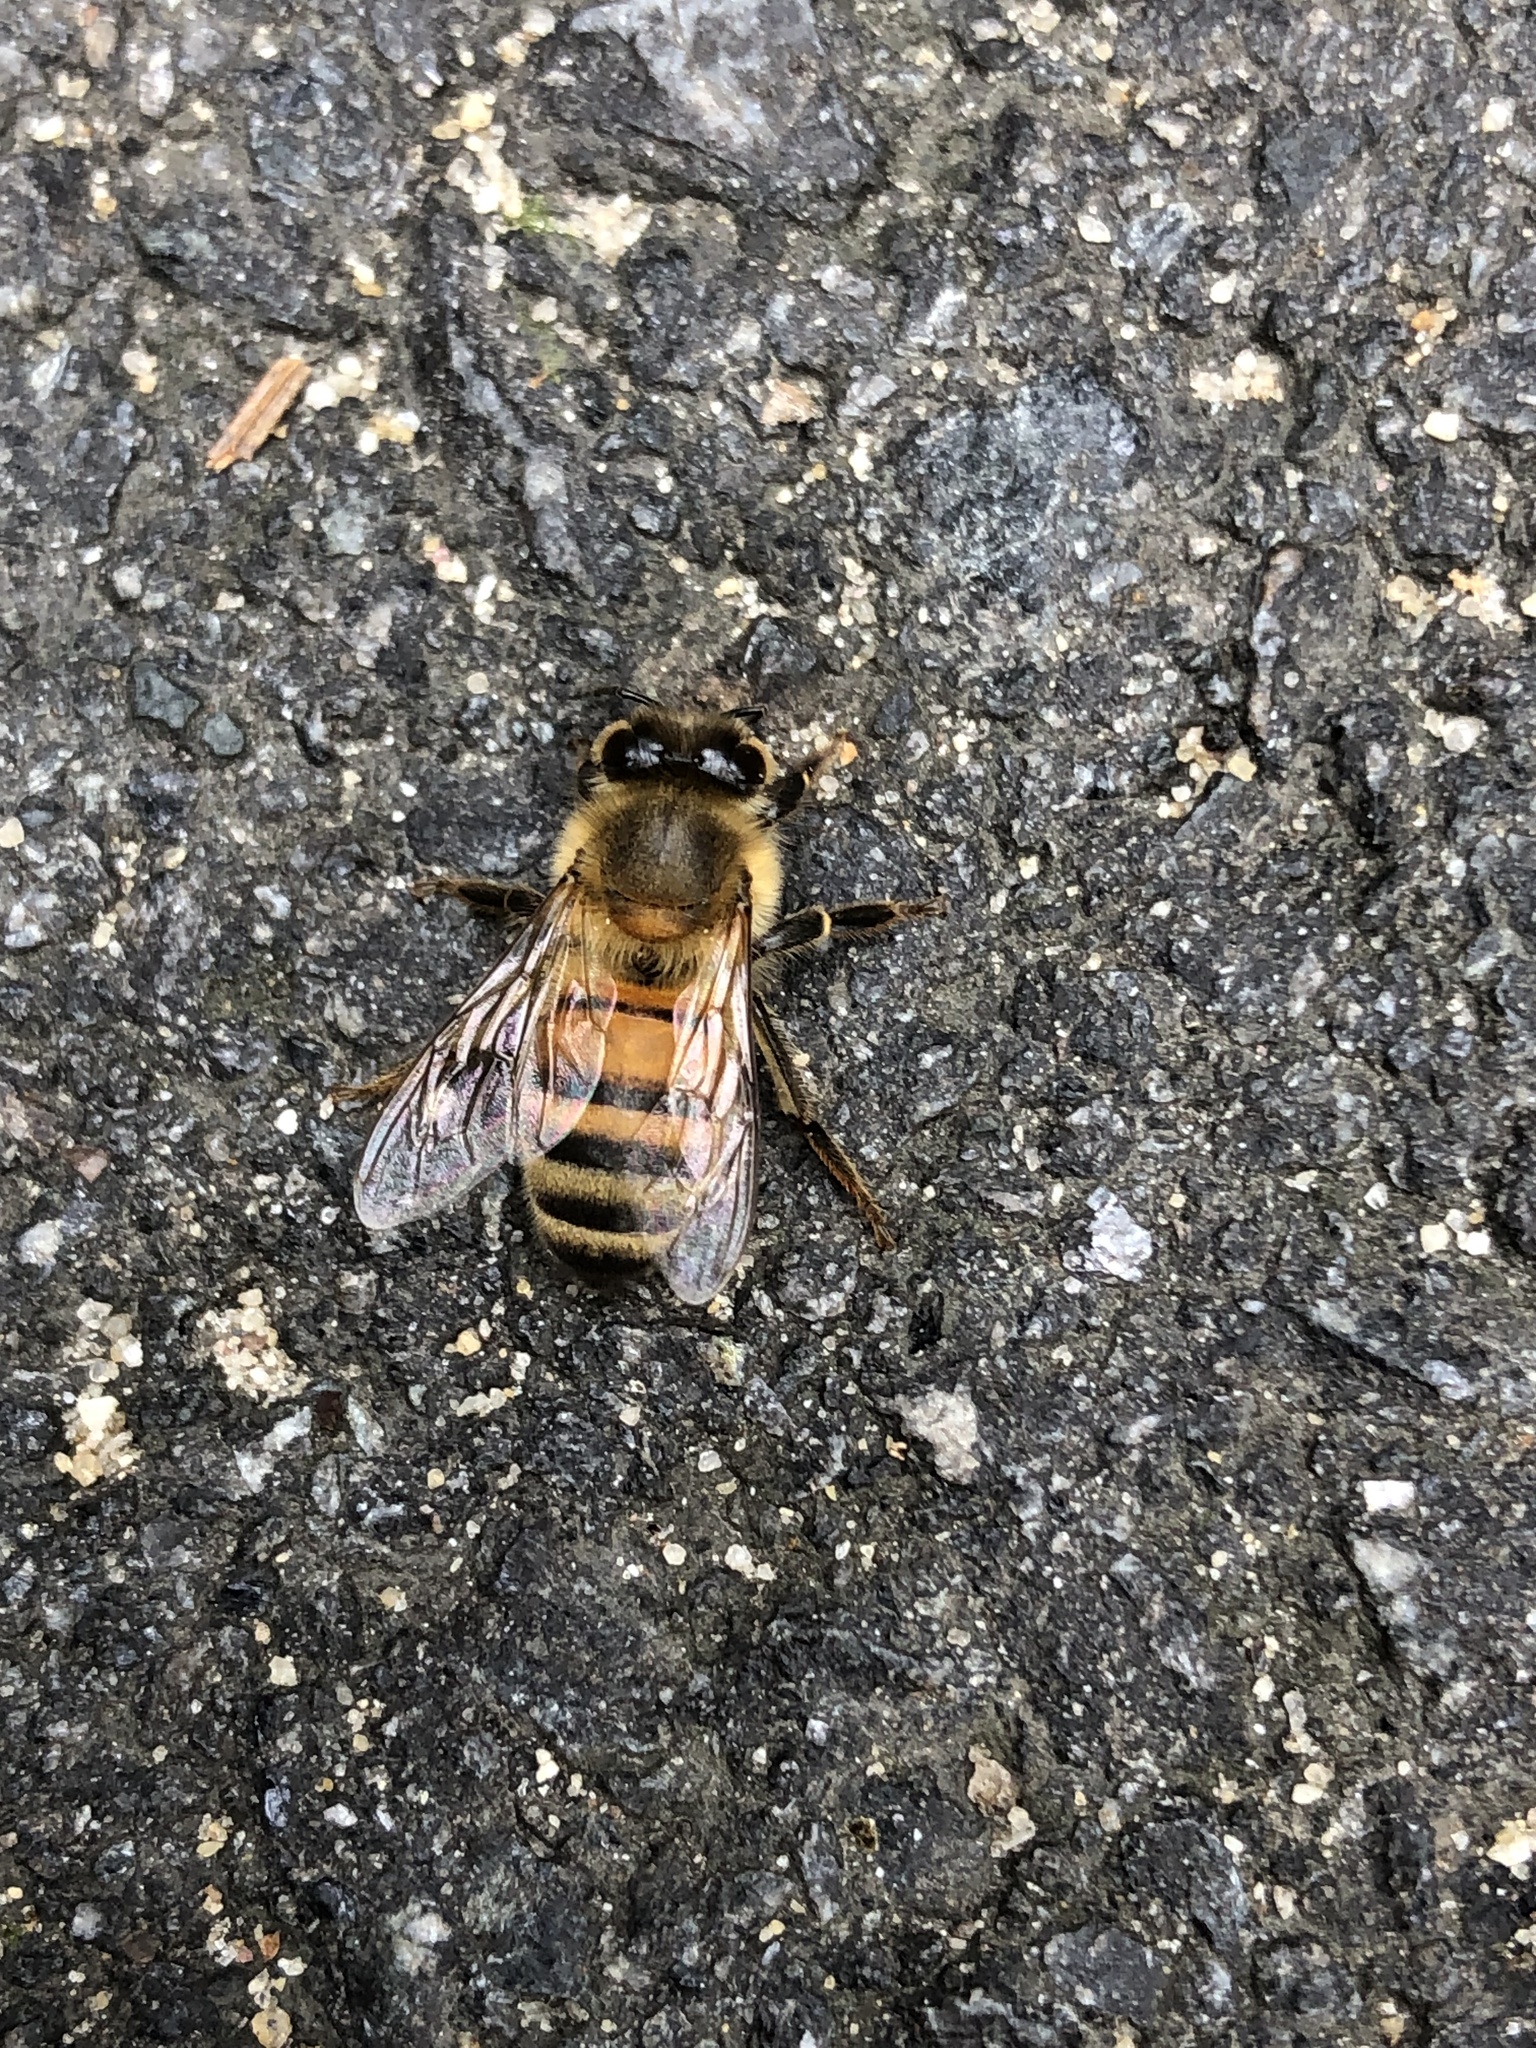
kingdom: Animalia
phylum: Arthropoda
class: Insecta
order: Hymenoptera
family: Apidae
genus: Apis
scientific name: Apis mellifera
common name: Honey bee
